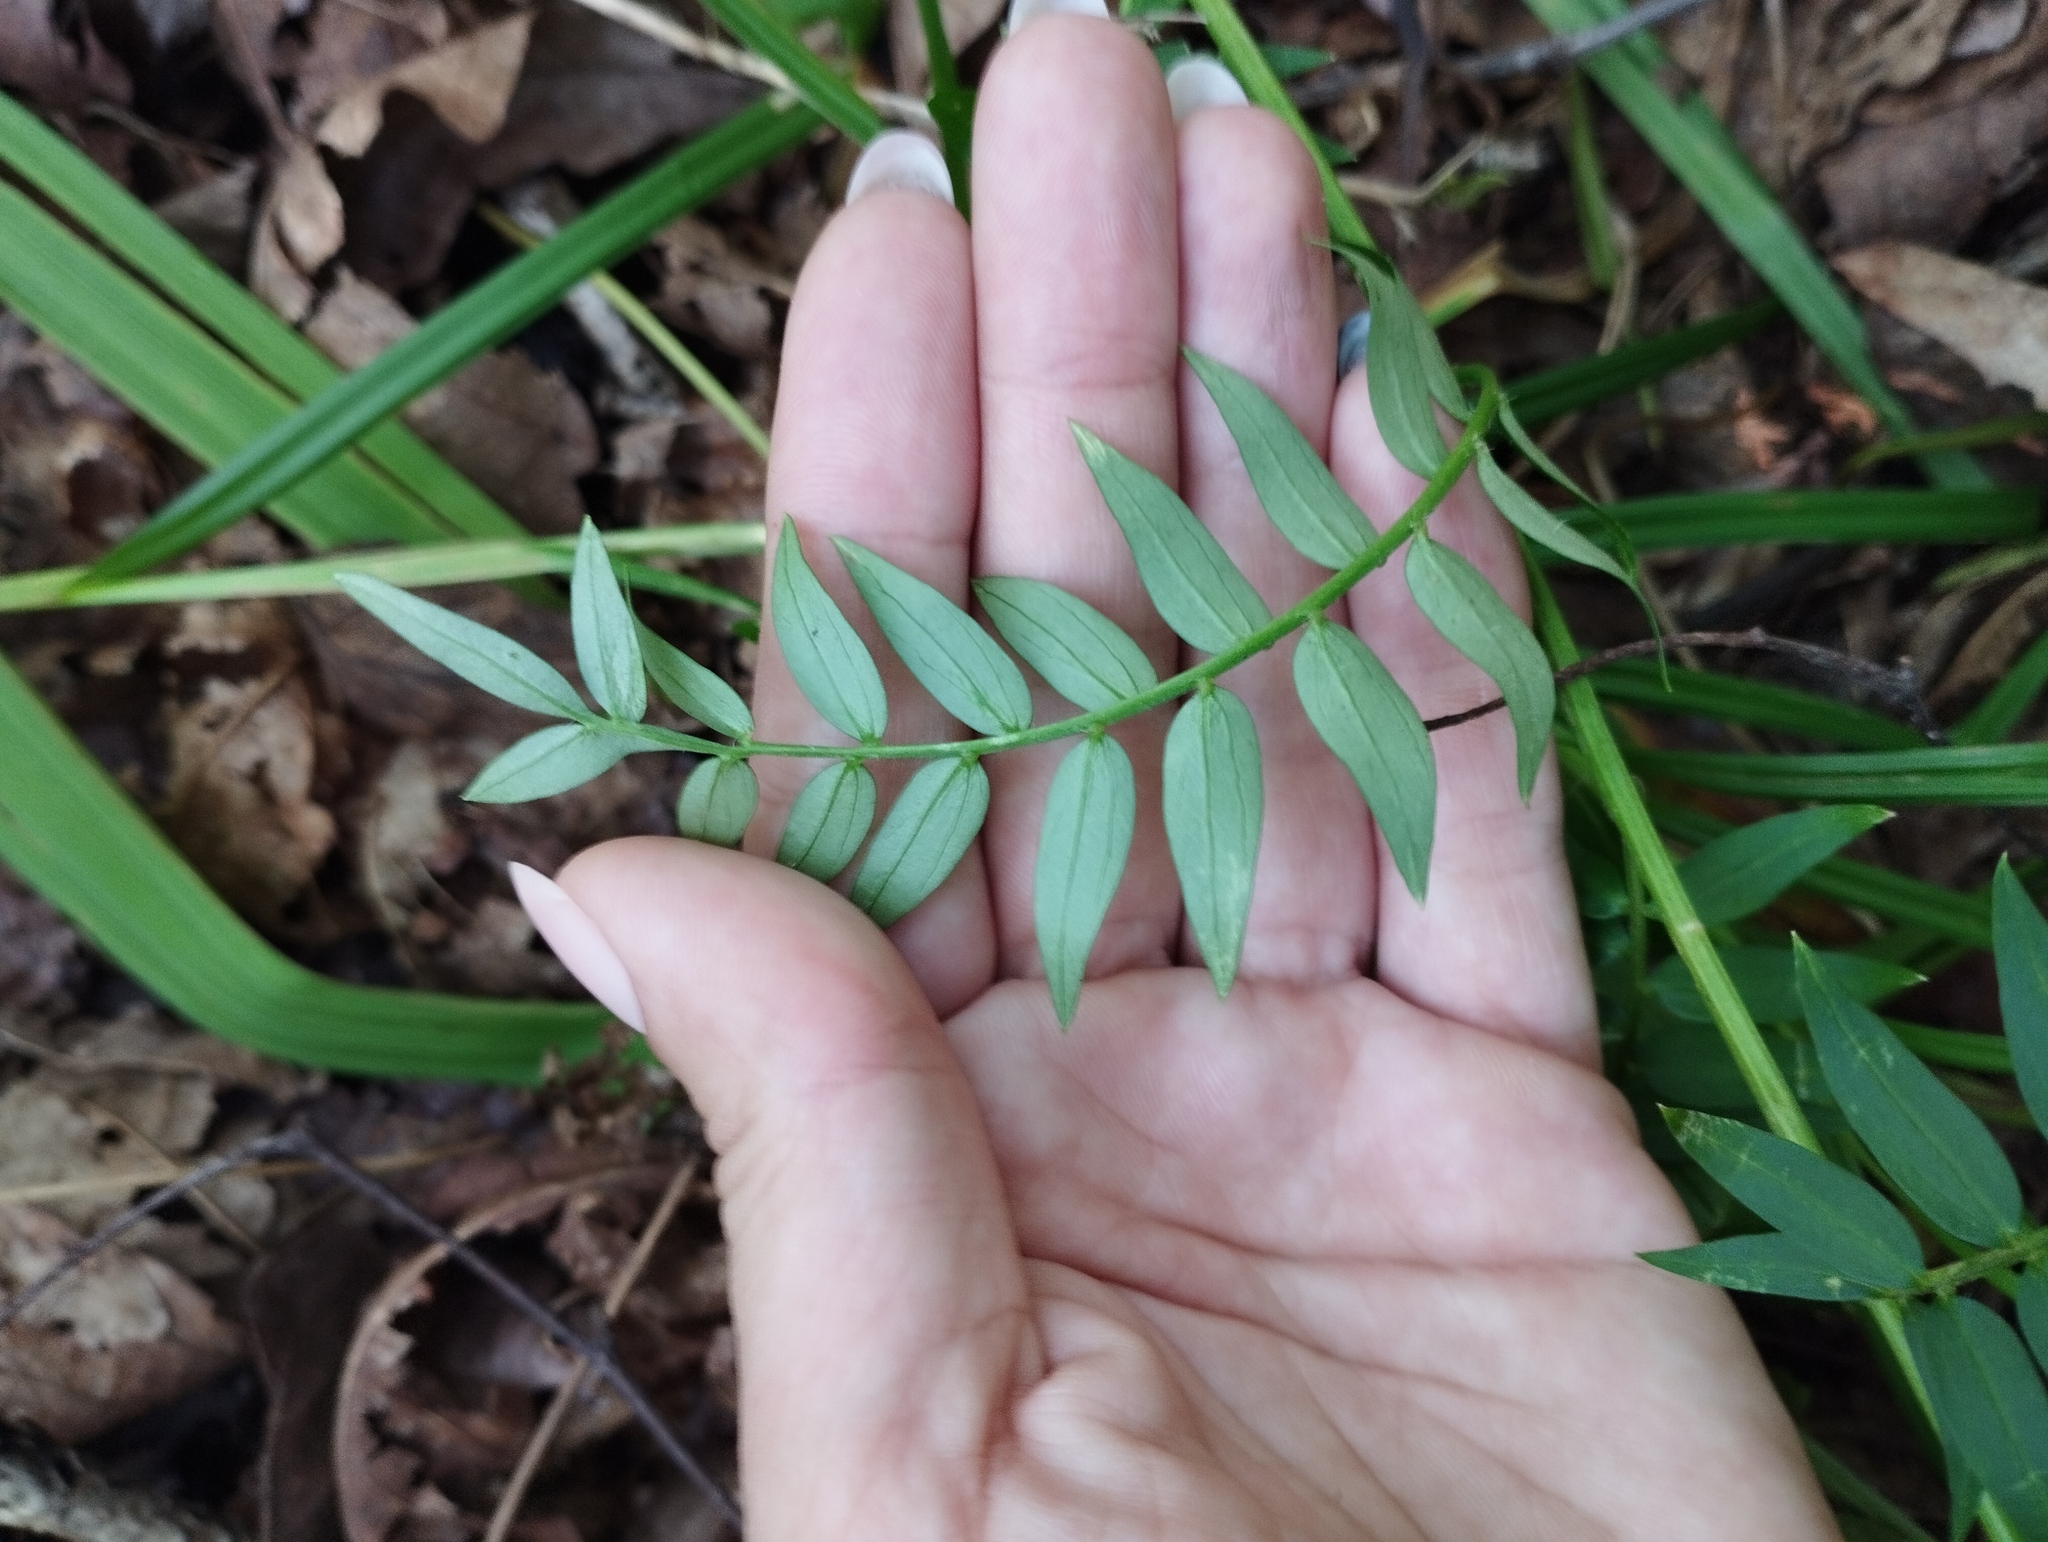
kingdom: Plantae
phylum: Tracheophyta
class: Magnoliopsida
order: Ericales
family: Polemoniaceae
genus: Polemonium
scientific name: Polemonium caeruleum
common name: Jacob's-ladder
